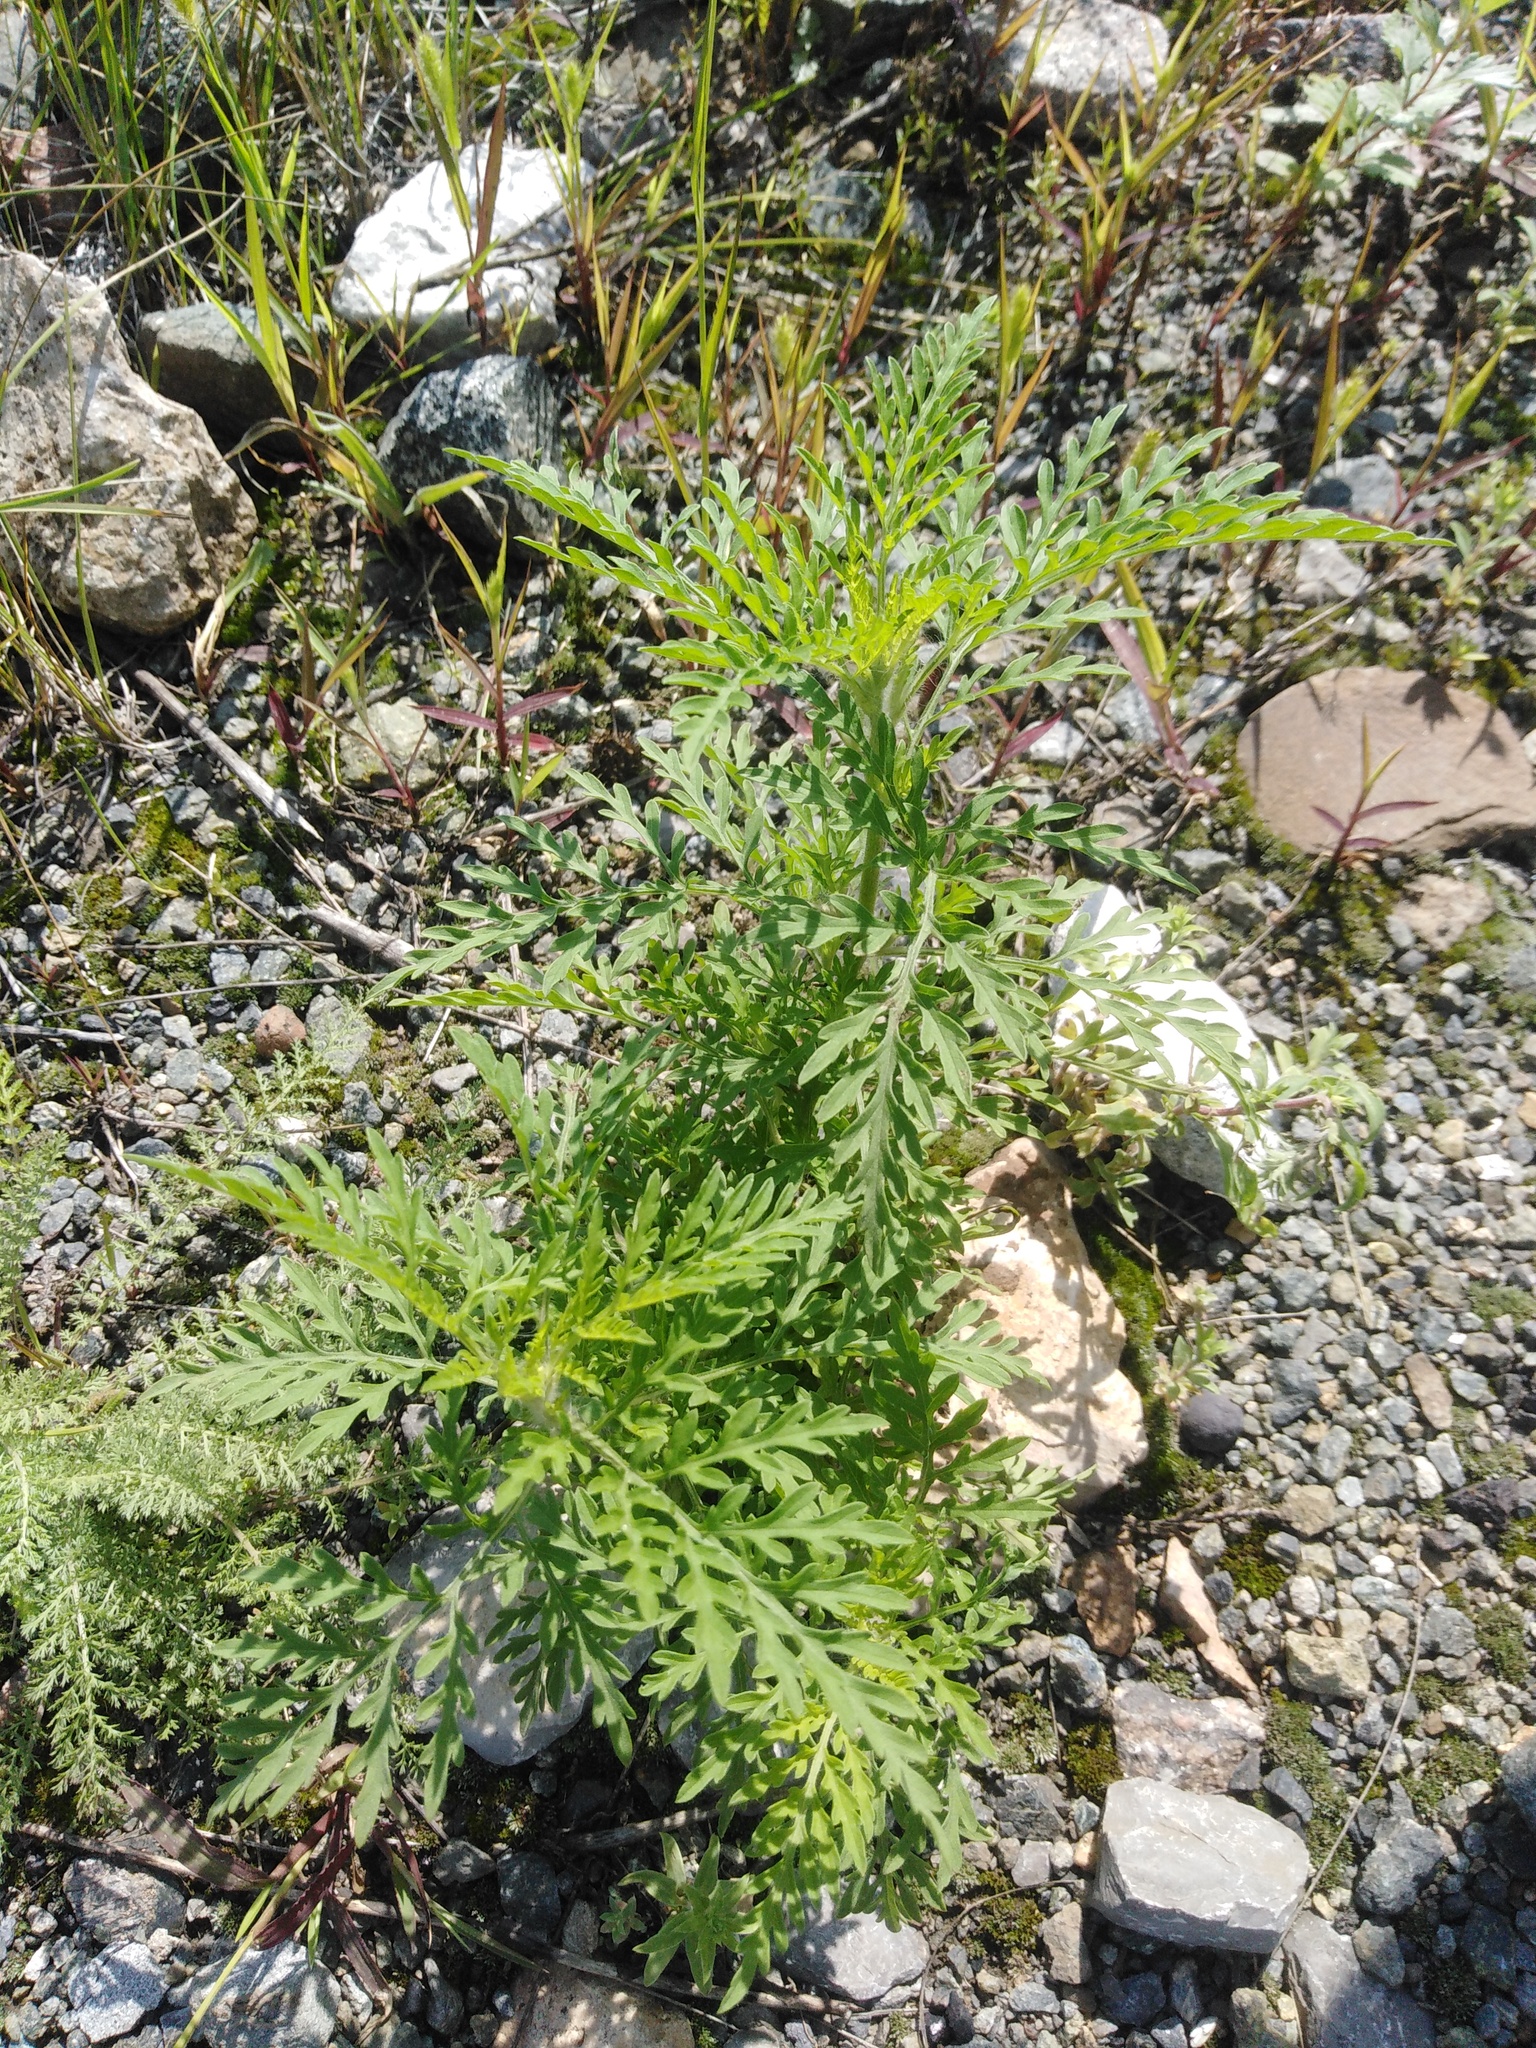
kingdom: Plantae
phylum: Tracheophyta
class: Magnoliopsida
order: Asterales
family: Asteraceae
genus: Ambrosia
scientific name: Ambrosia artemisiifolia
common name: Annual ragweed
